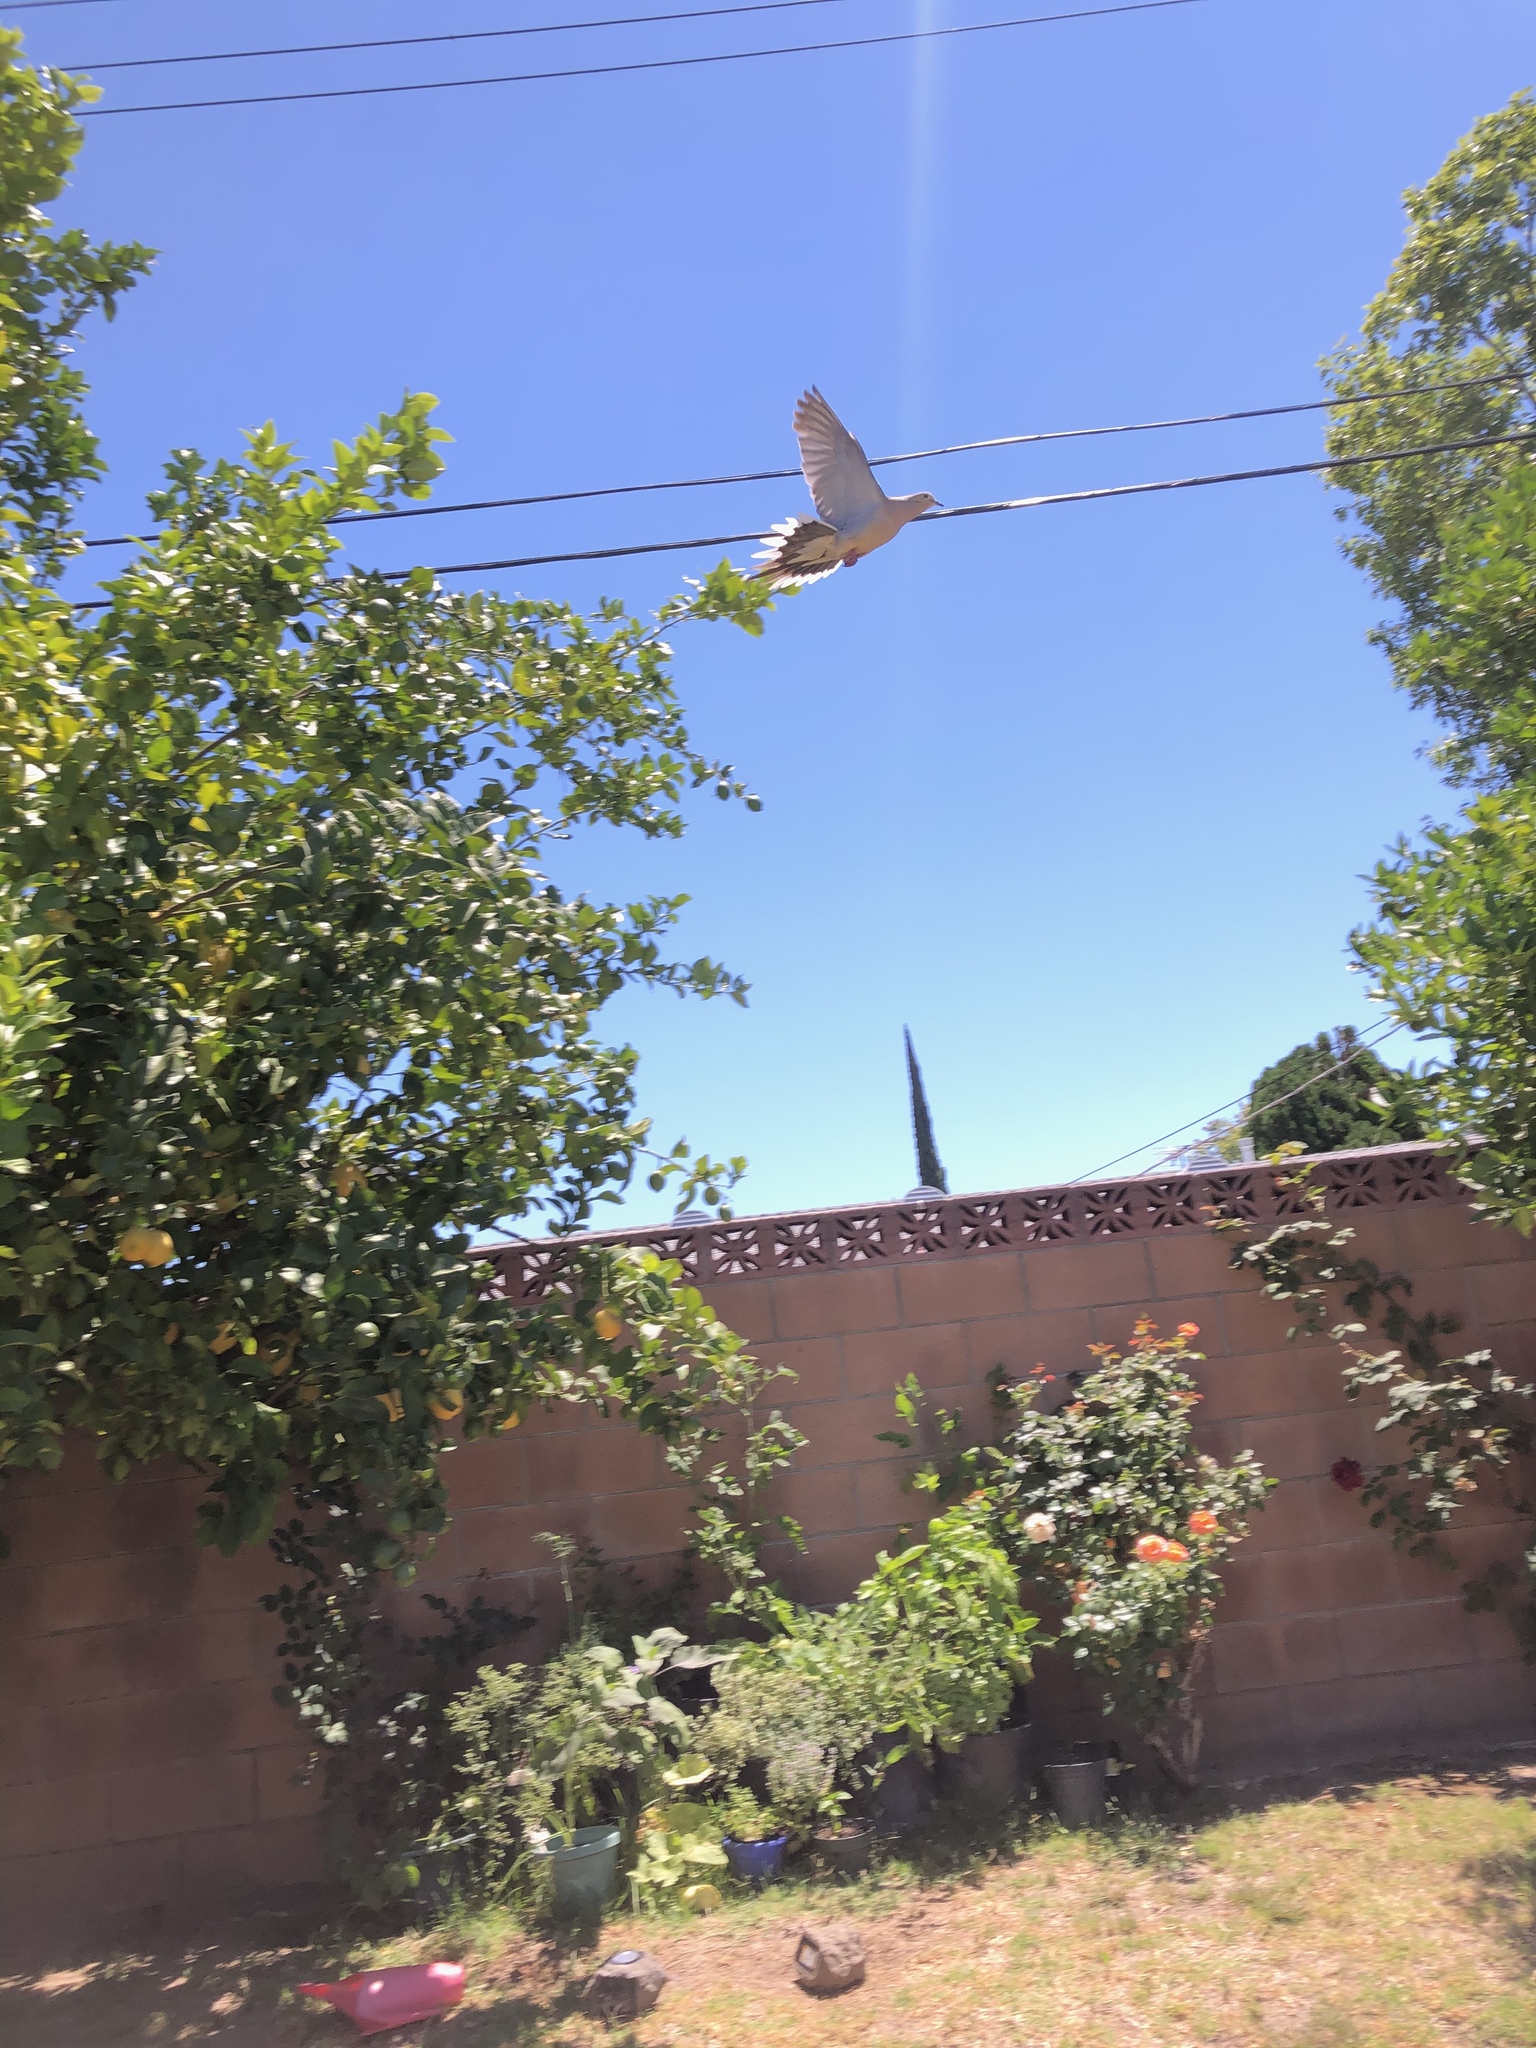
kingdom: Animalia
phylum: Chordata
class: Aves
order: Columbiformes
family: Columbidae
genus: Zenaida
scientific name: Zenaida macroura
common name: Mourning dove
